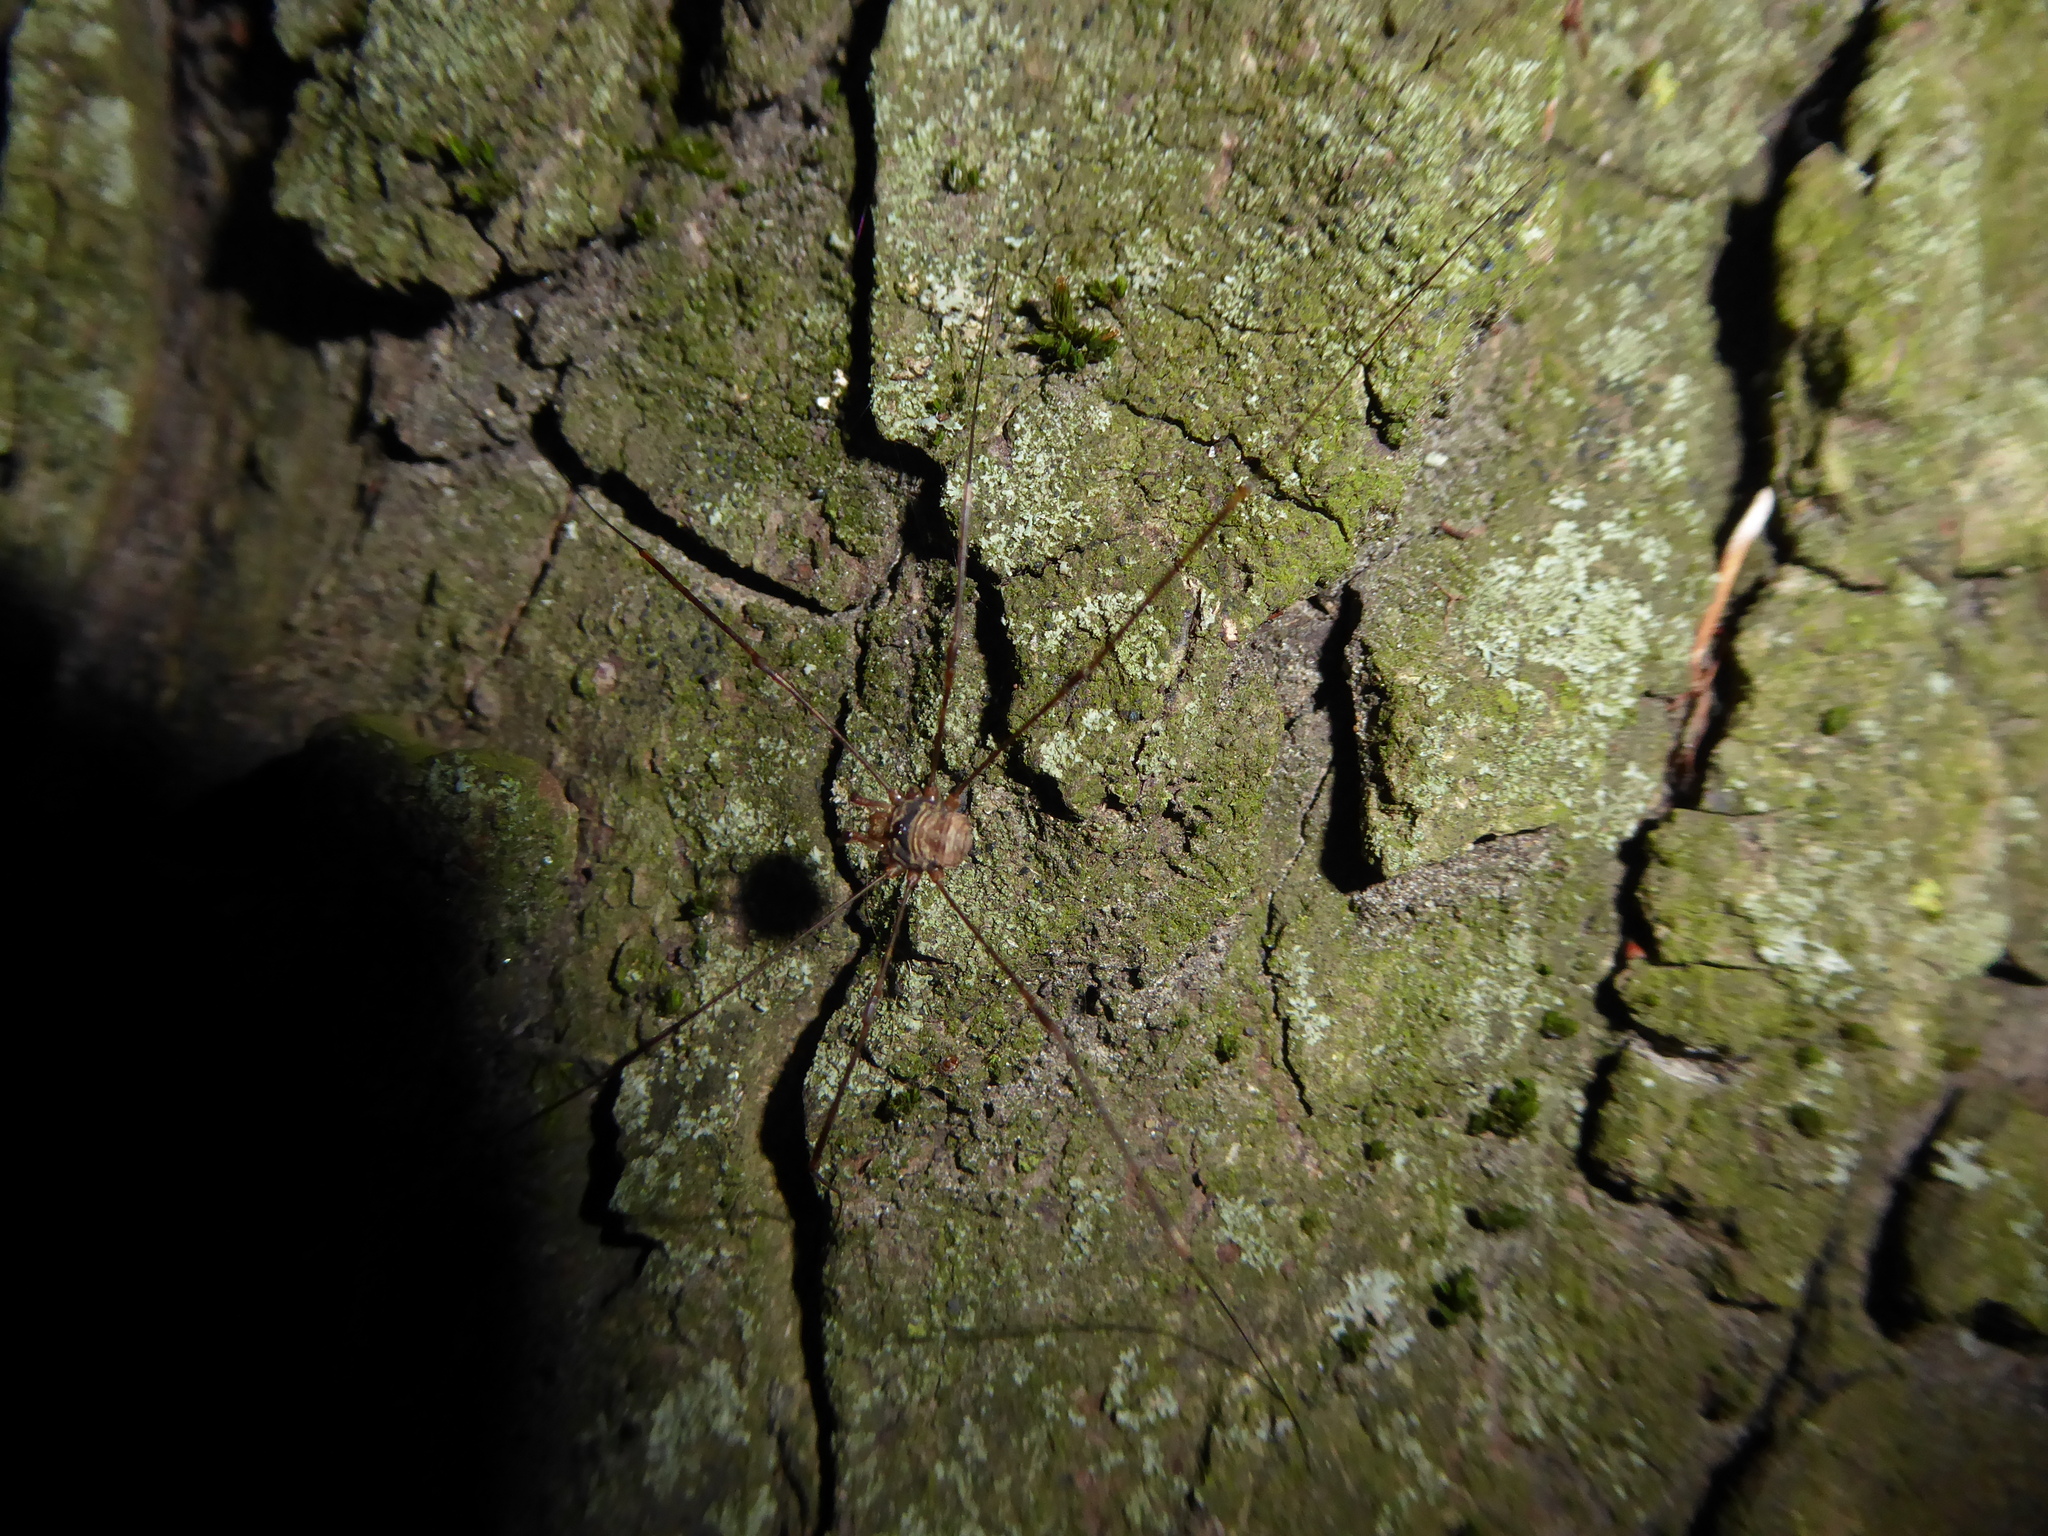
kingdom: Animalia
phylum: Arthropoda
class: Arachnida
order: Opiliones
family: Phalangiidae
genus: Dicranopalpus
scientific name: Dicranopalpus
